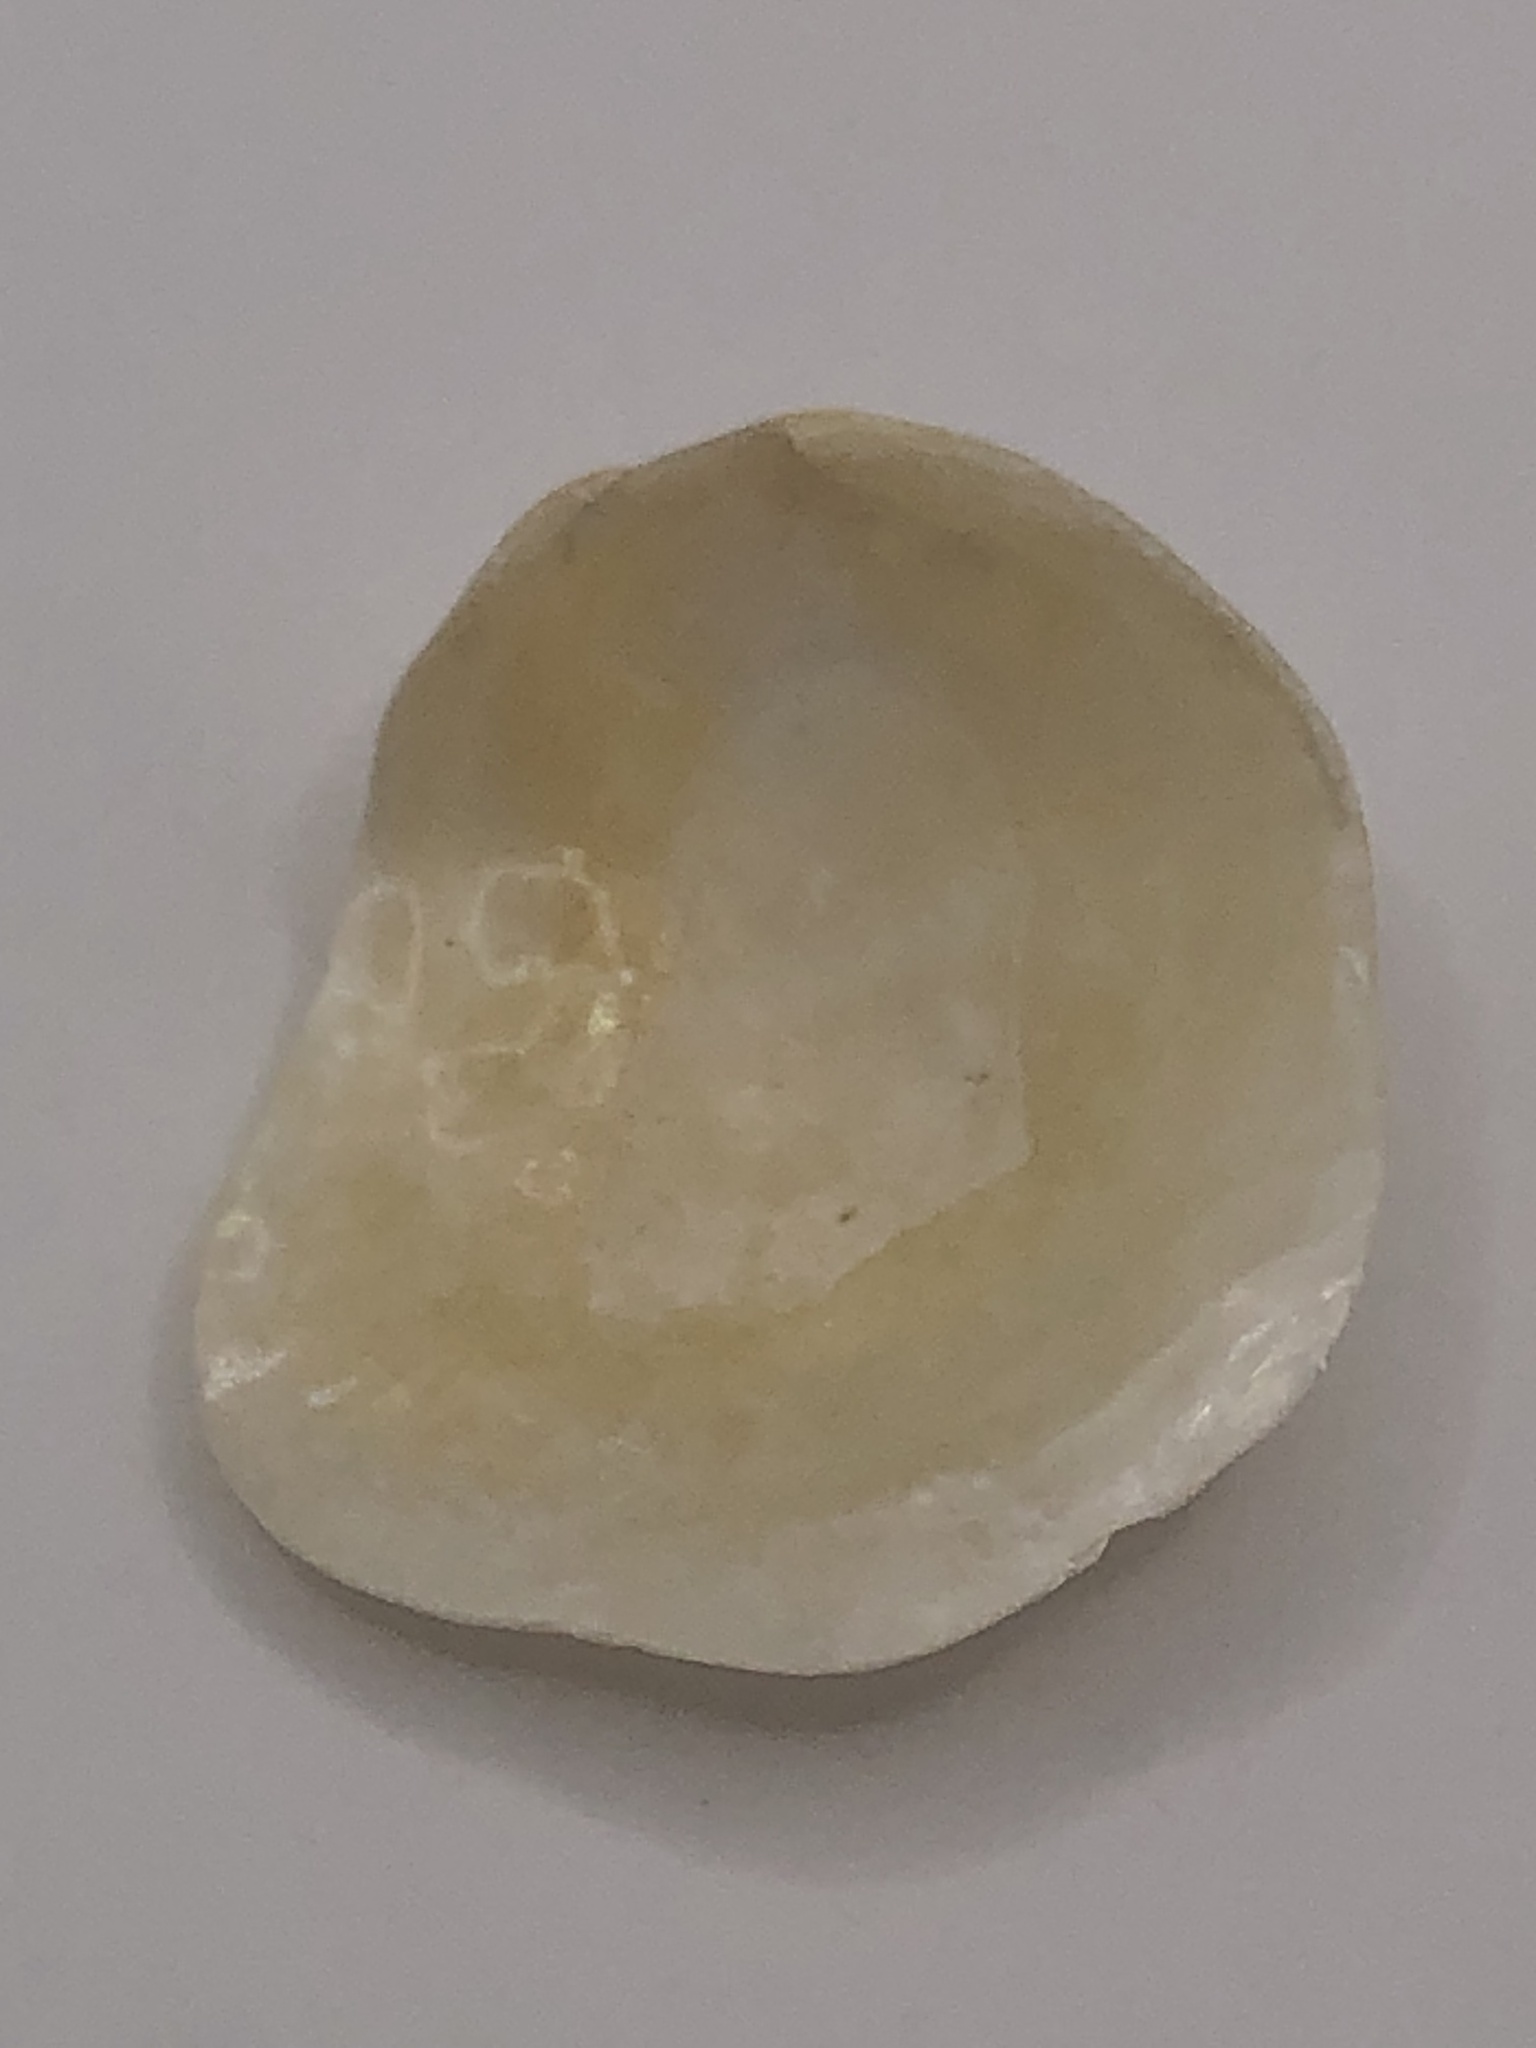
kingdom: Animalia
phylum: Mollusca
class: Bivalvia
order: Pectinida
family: Anomiidae
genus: Anomia
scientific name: Anomia simplex
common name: Common jingle shell
